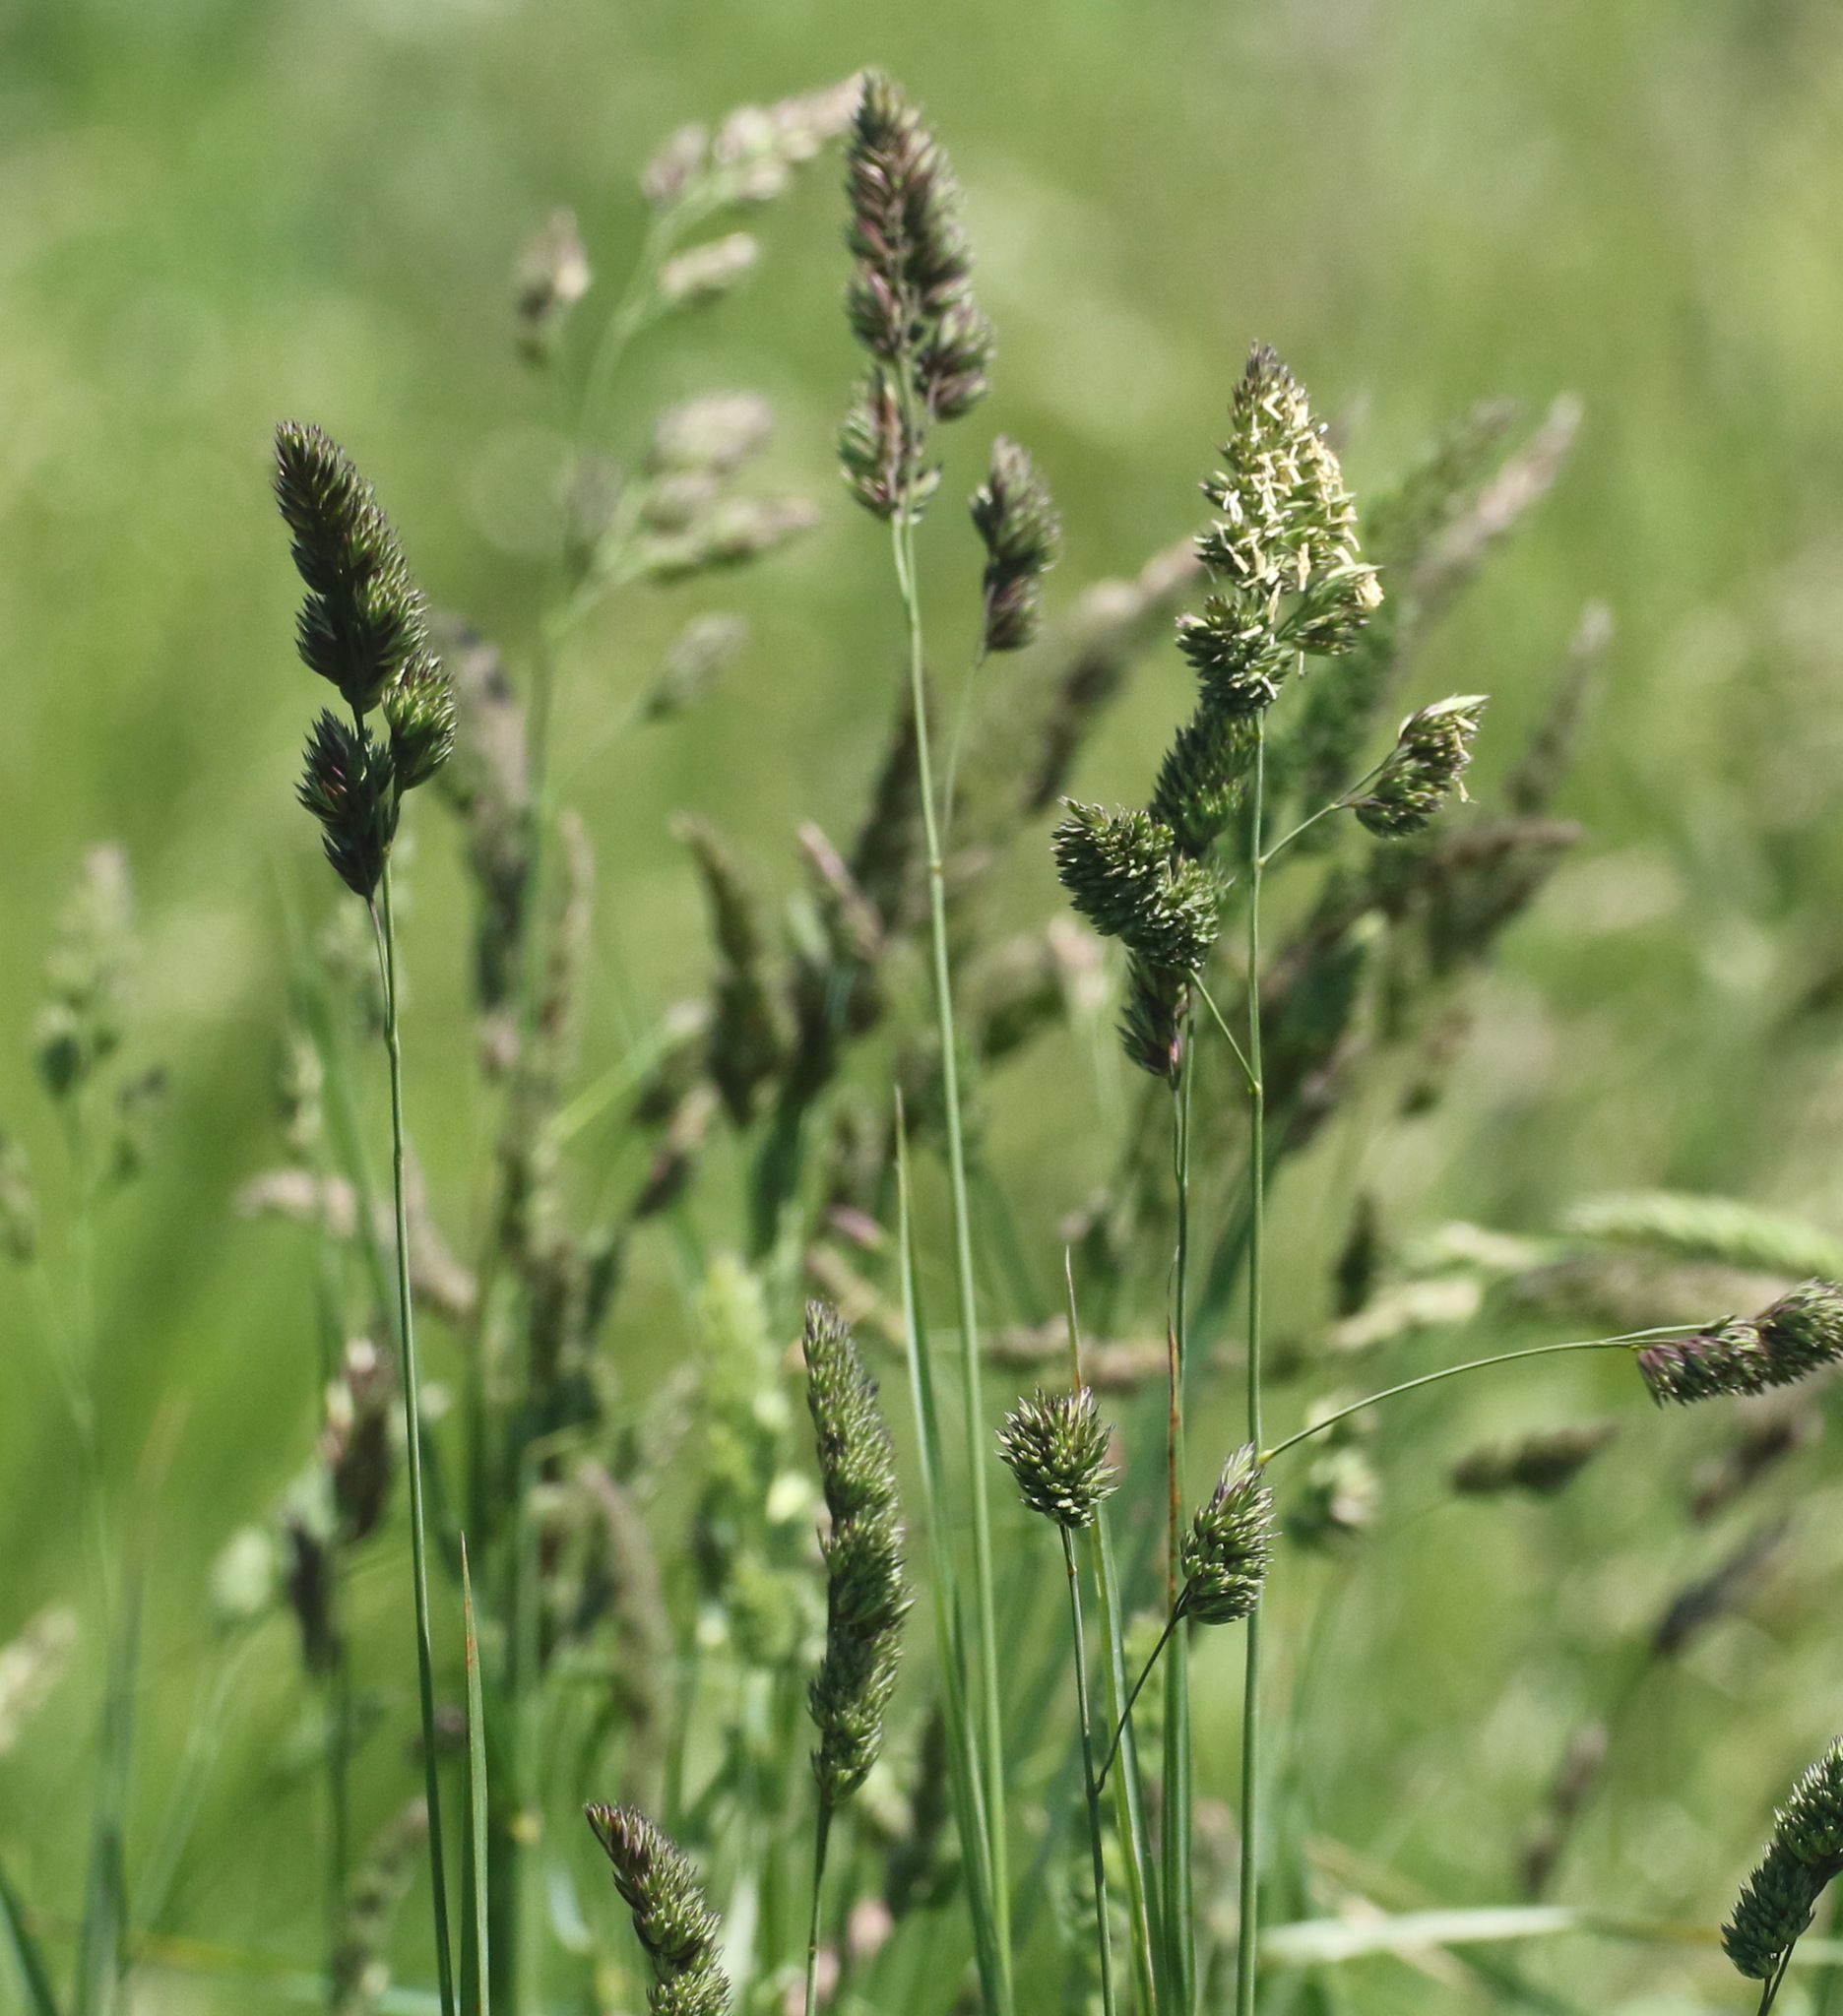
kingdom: Plantae
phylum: Tracheophyta
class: Liliopsida
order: Poales
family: Poaceae
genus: Dactylis
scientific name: Dactylis glomerata
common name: Orchardgrass
